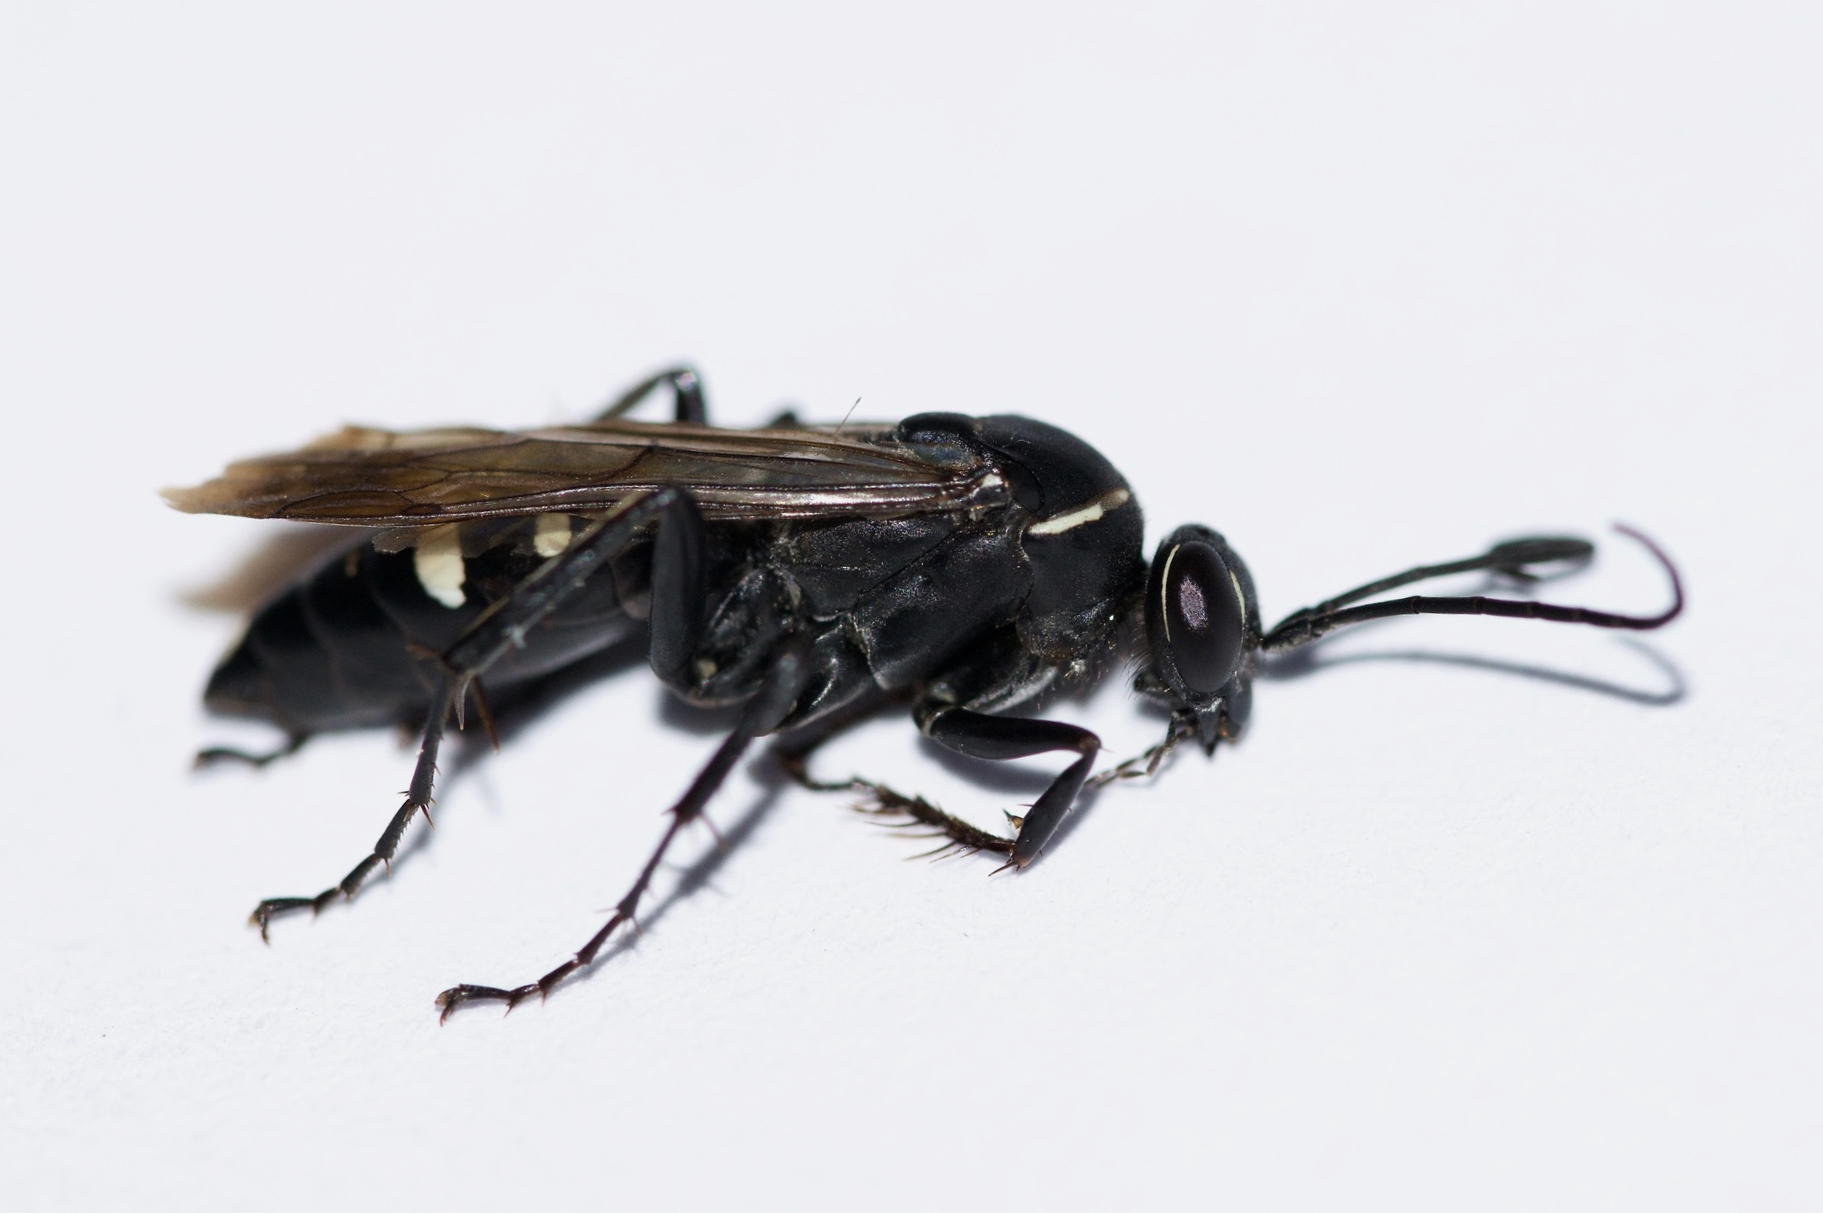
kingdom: Animalia
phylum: Arthropoda
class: Insecta
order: Hymenoptera
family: Pompilidae
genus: Episyron
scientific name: Episyron quinquenotatus
